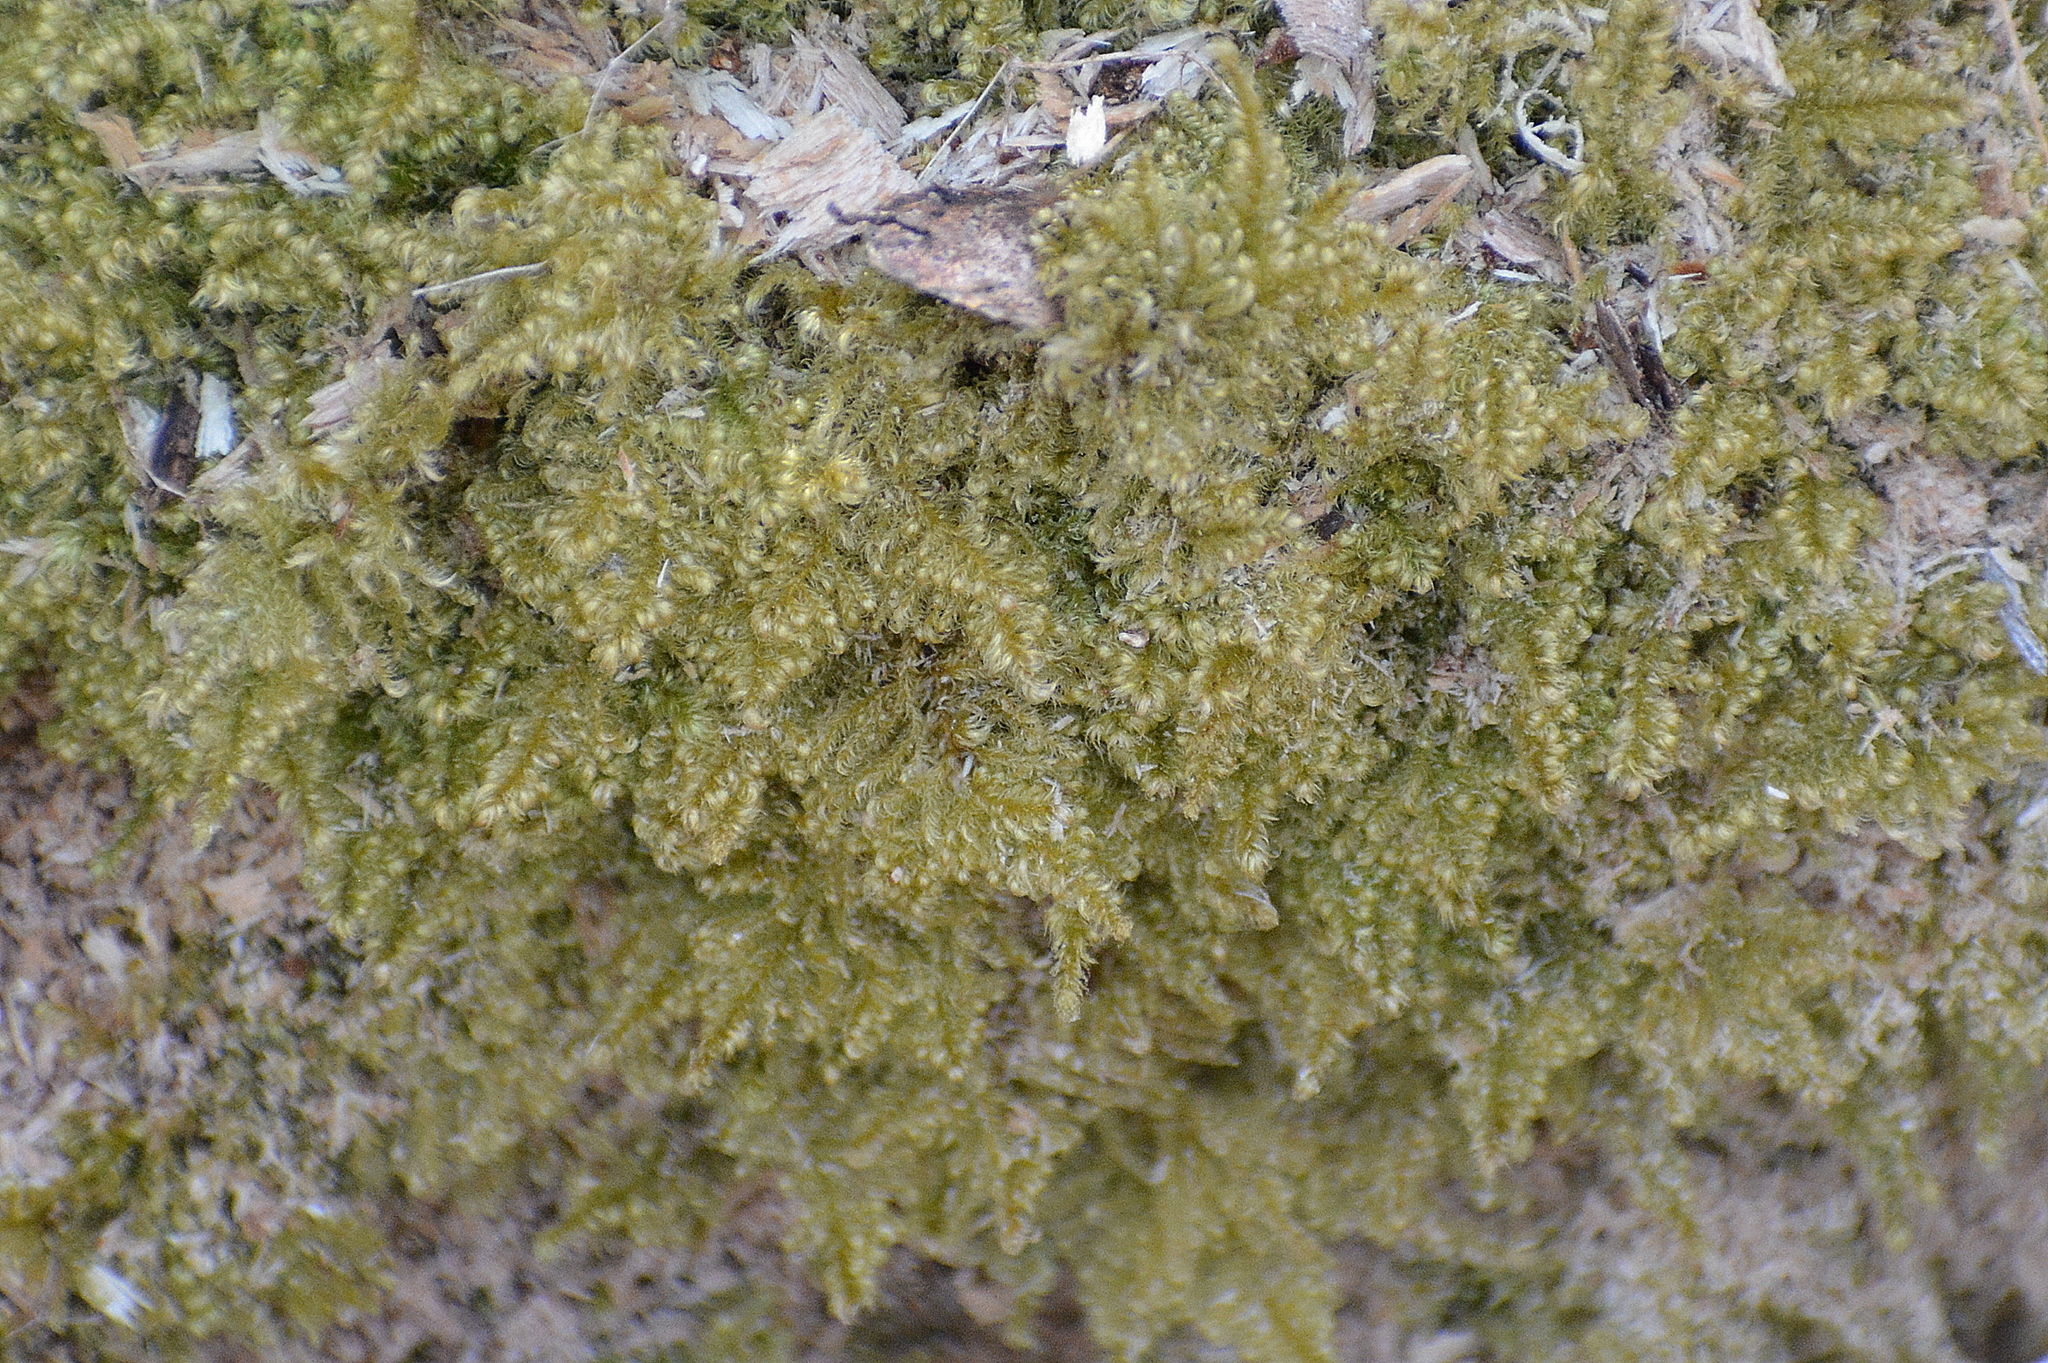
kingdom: Plantae
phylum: Bryophyta
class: Bryopsida
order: Hypnales
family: Myuriaceae
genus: Ctenidium
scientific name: Ctenidium molluscum
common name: Chalk comb-moss
